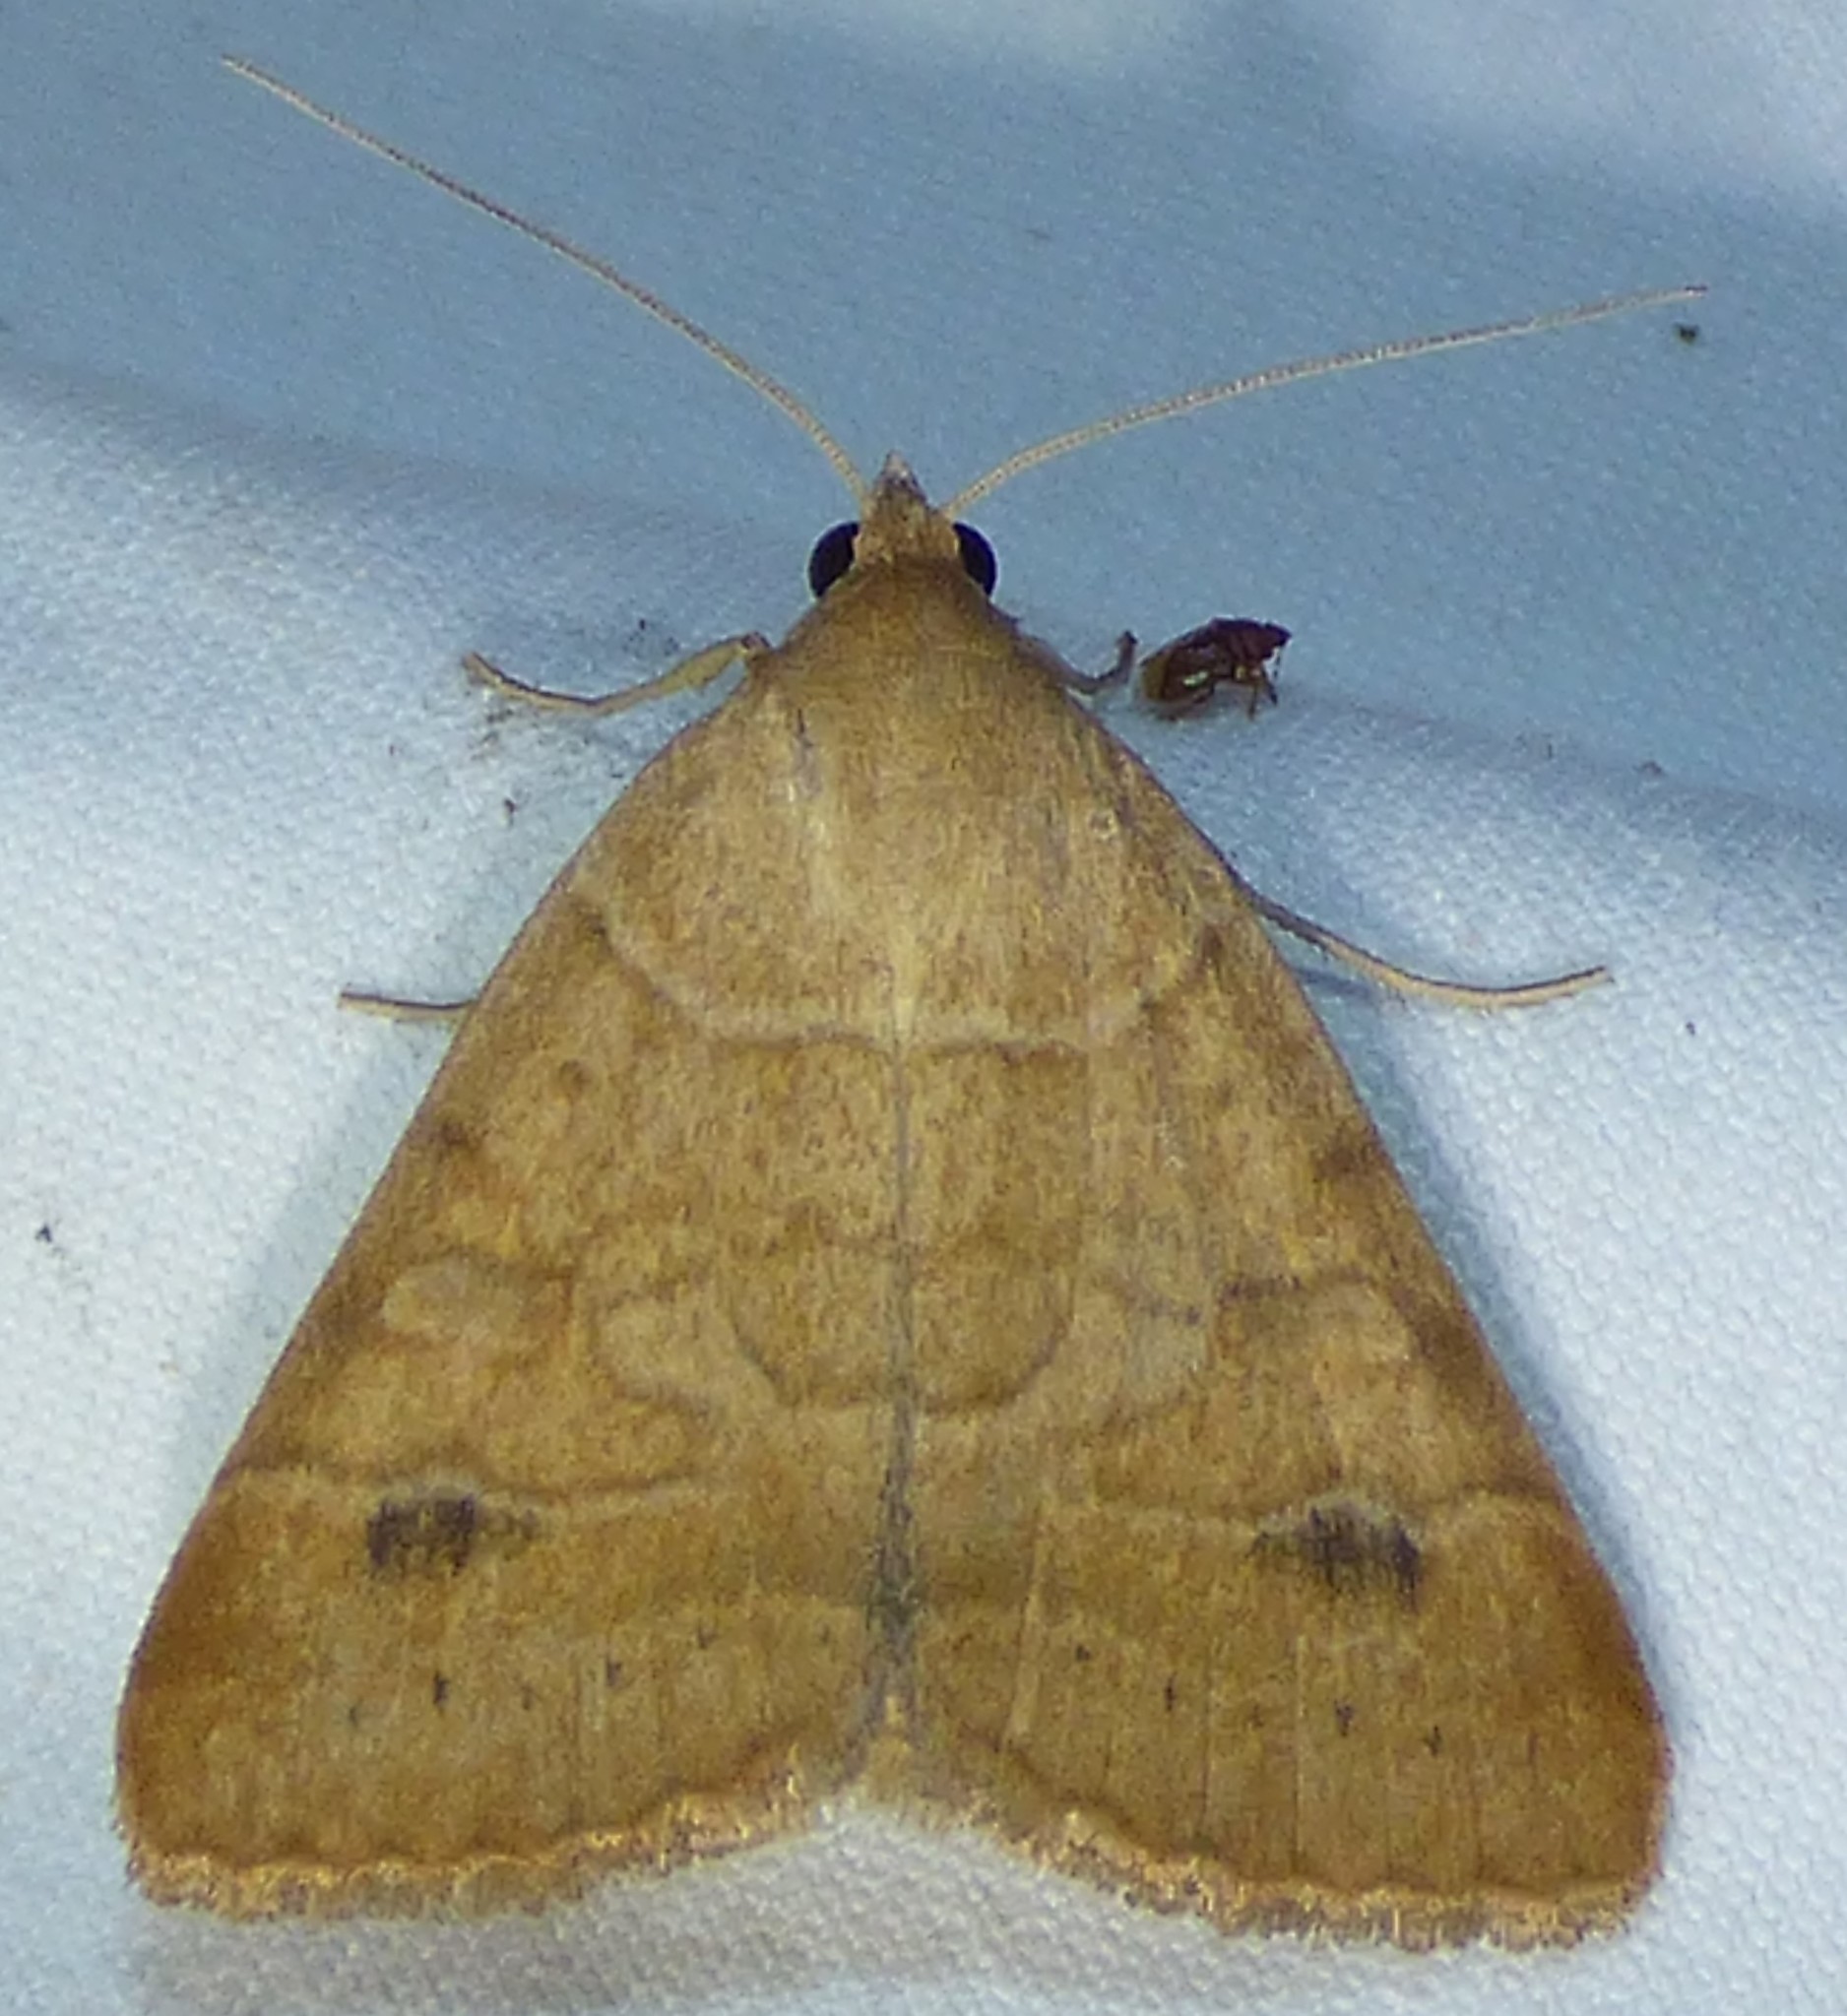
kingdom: Animalia
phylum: Arthropoda
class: Insecta
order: Lepidoptera
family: Erebidae
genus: Caenurgia
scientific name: Caenurgia chloropha
